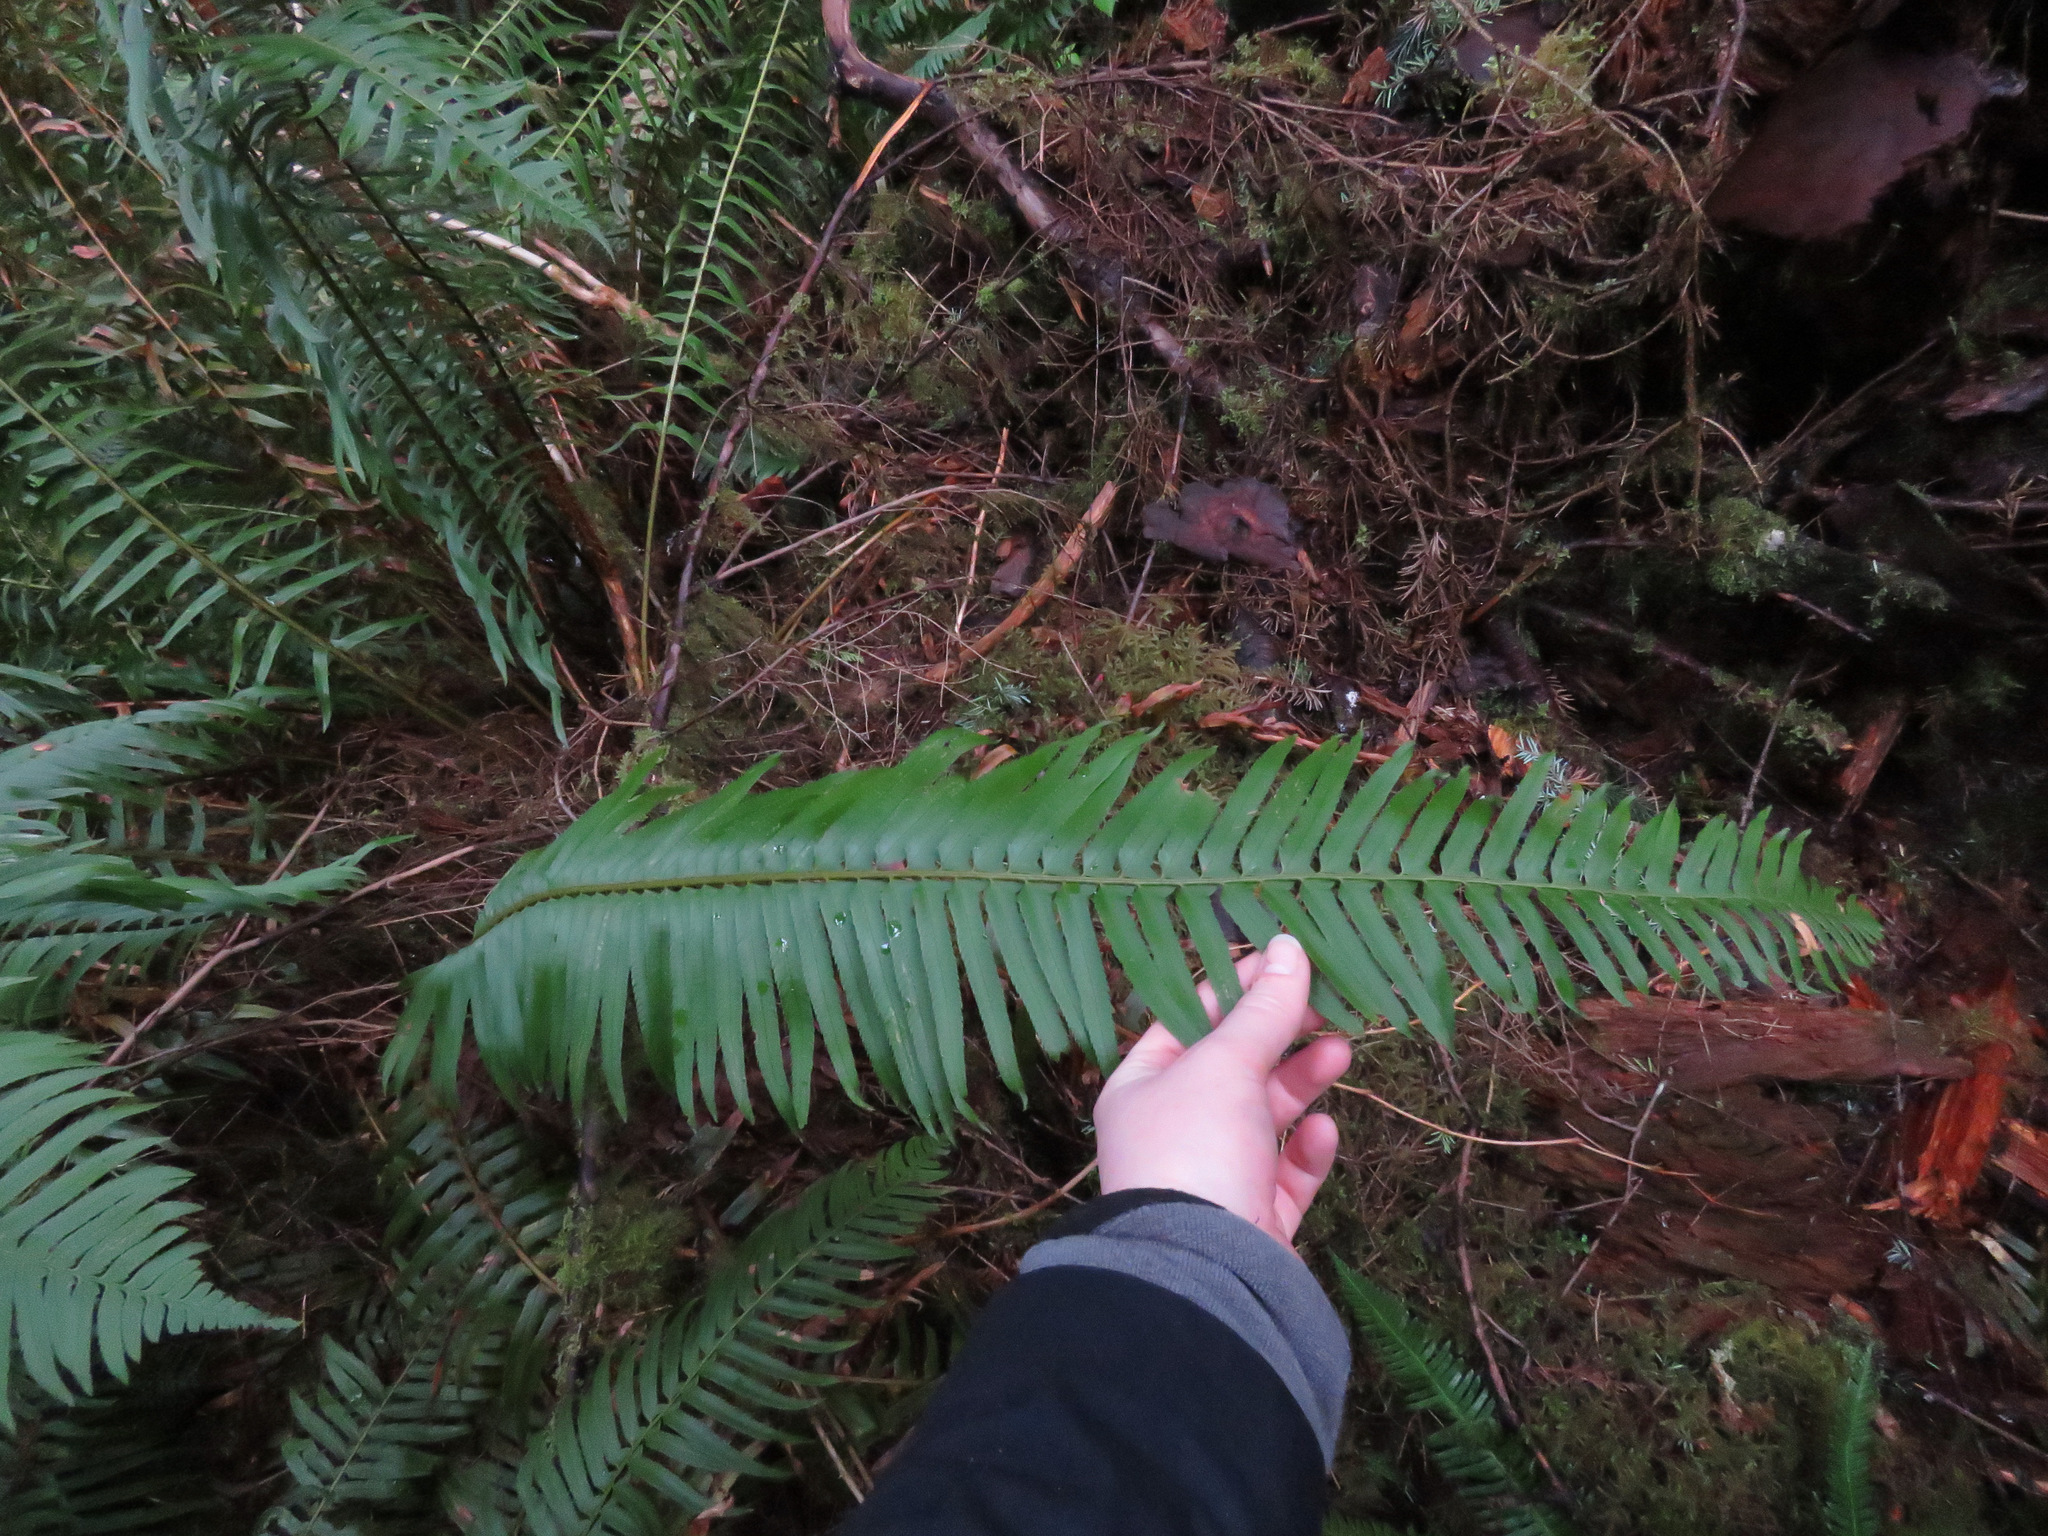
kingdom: Plantae
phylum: Tracheophyta
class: Polypodiopsida
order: Polypodiales
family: Dryopteridaceae
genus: Polystichum
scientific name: Polystichum munitum
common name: Western sword-fern
